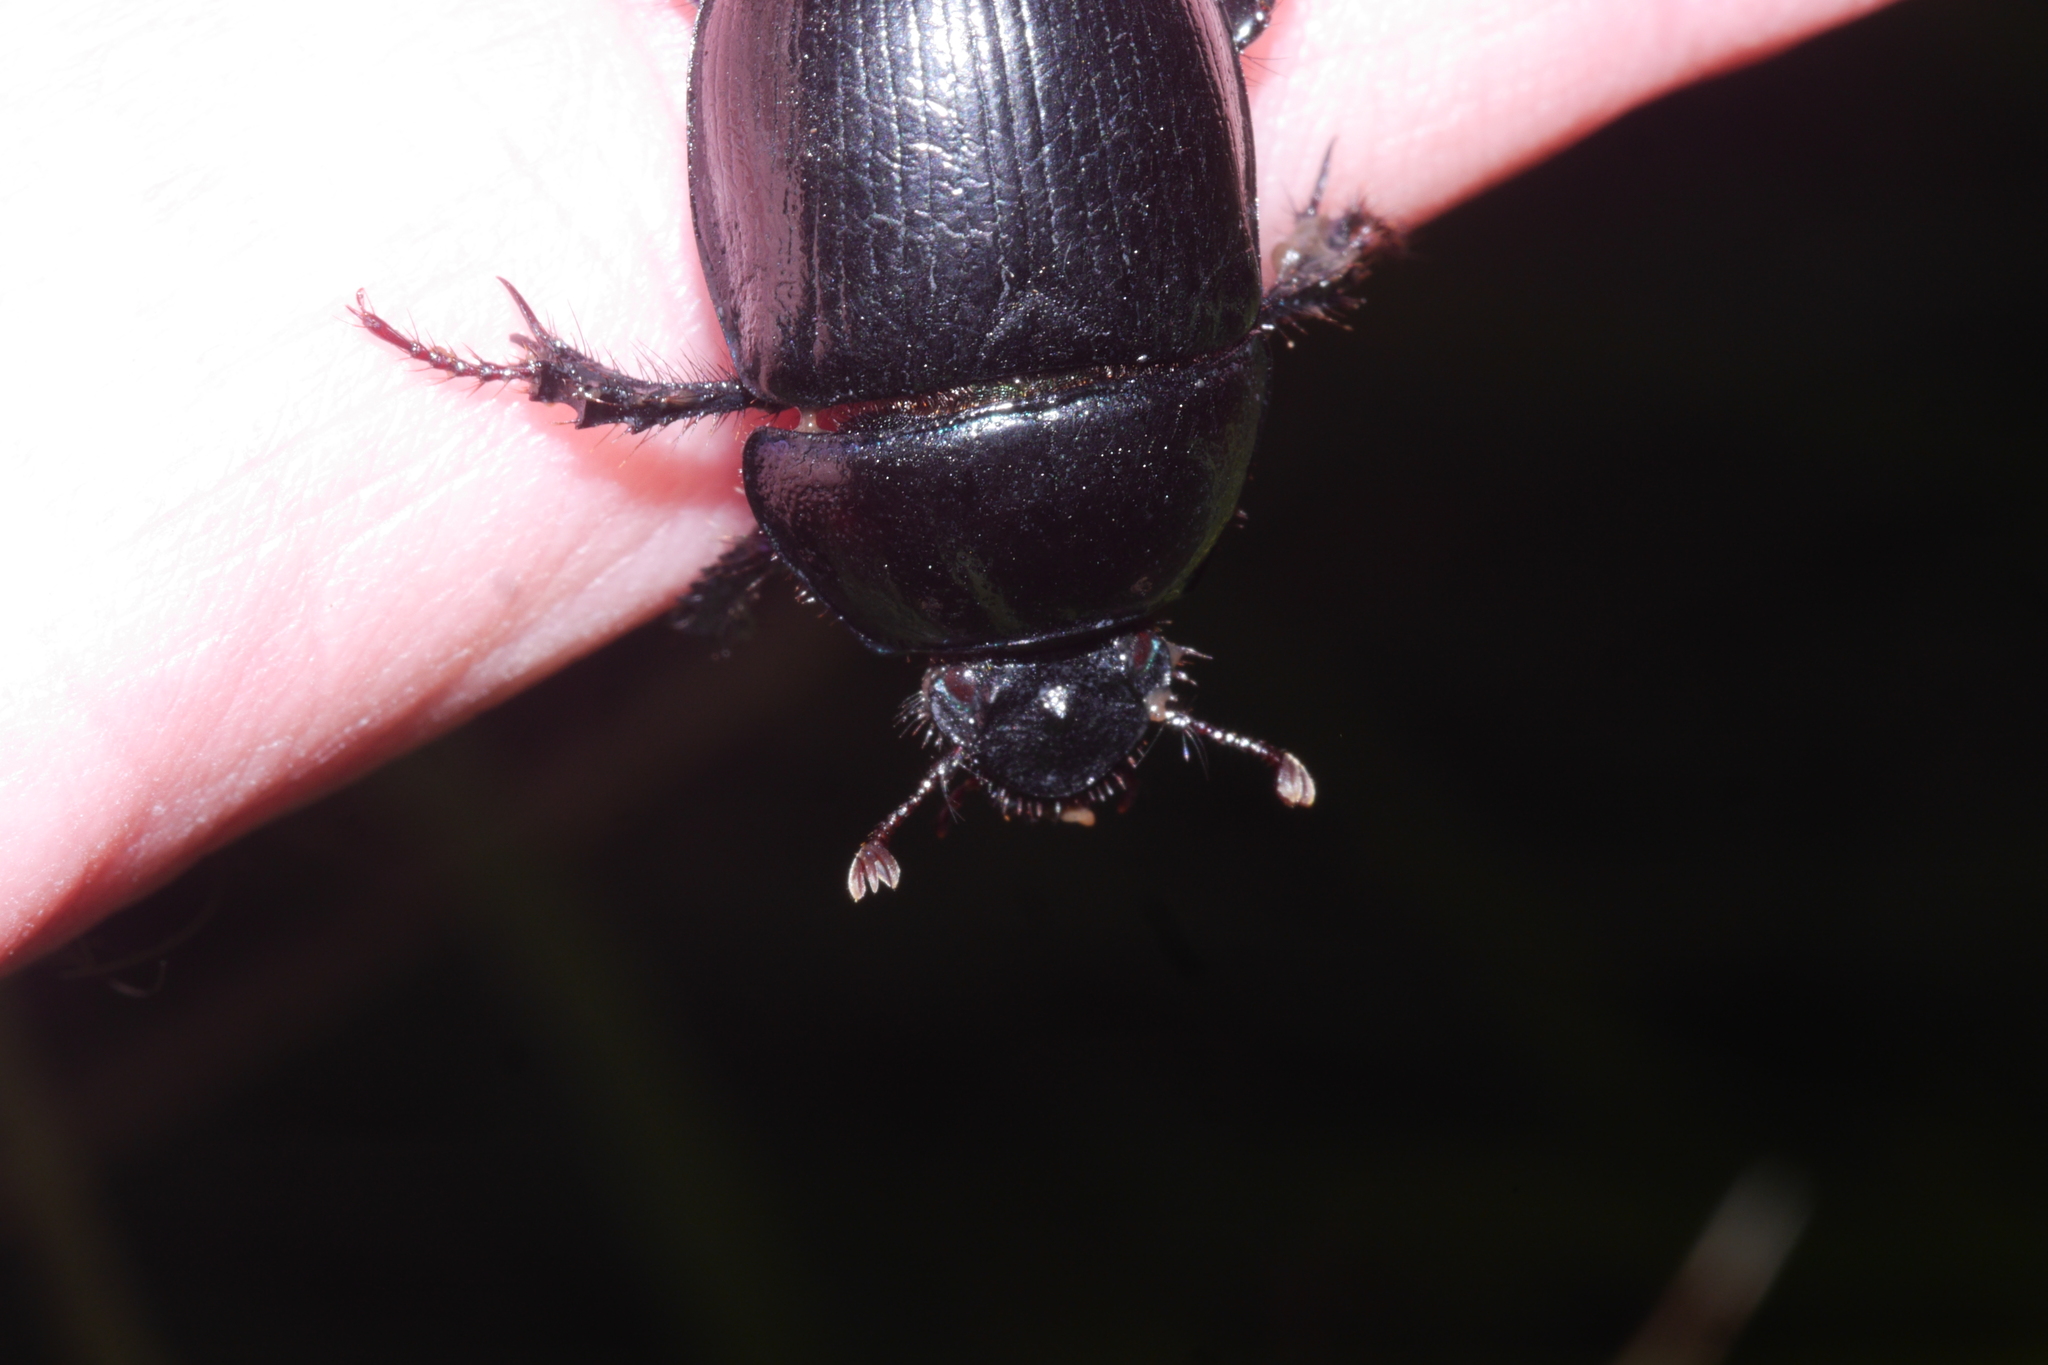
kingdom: Animalia
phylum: Arthropoda
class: Insecta
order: Coleoptera
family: Geotrupidae
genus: Anoplotrupes
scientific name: Anoplotrupes stercorosus
